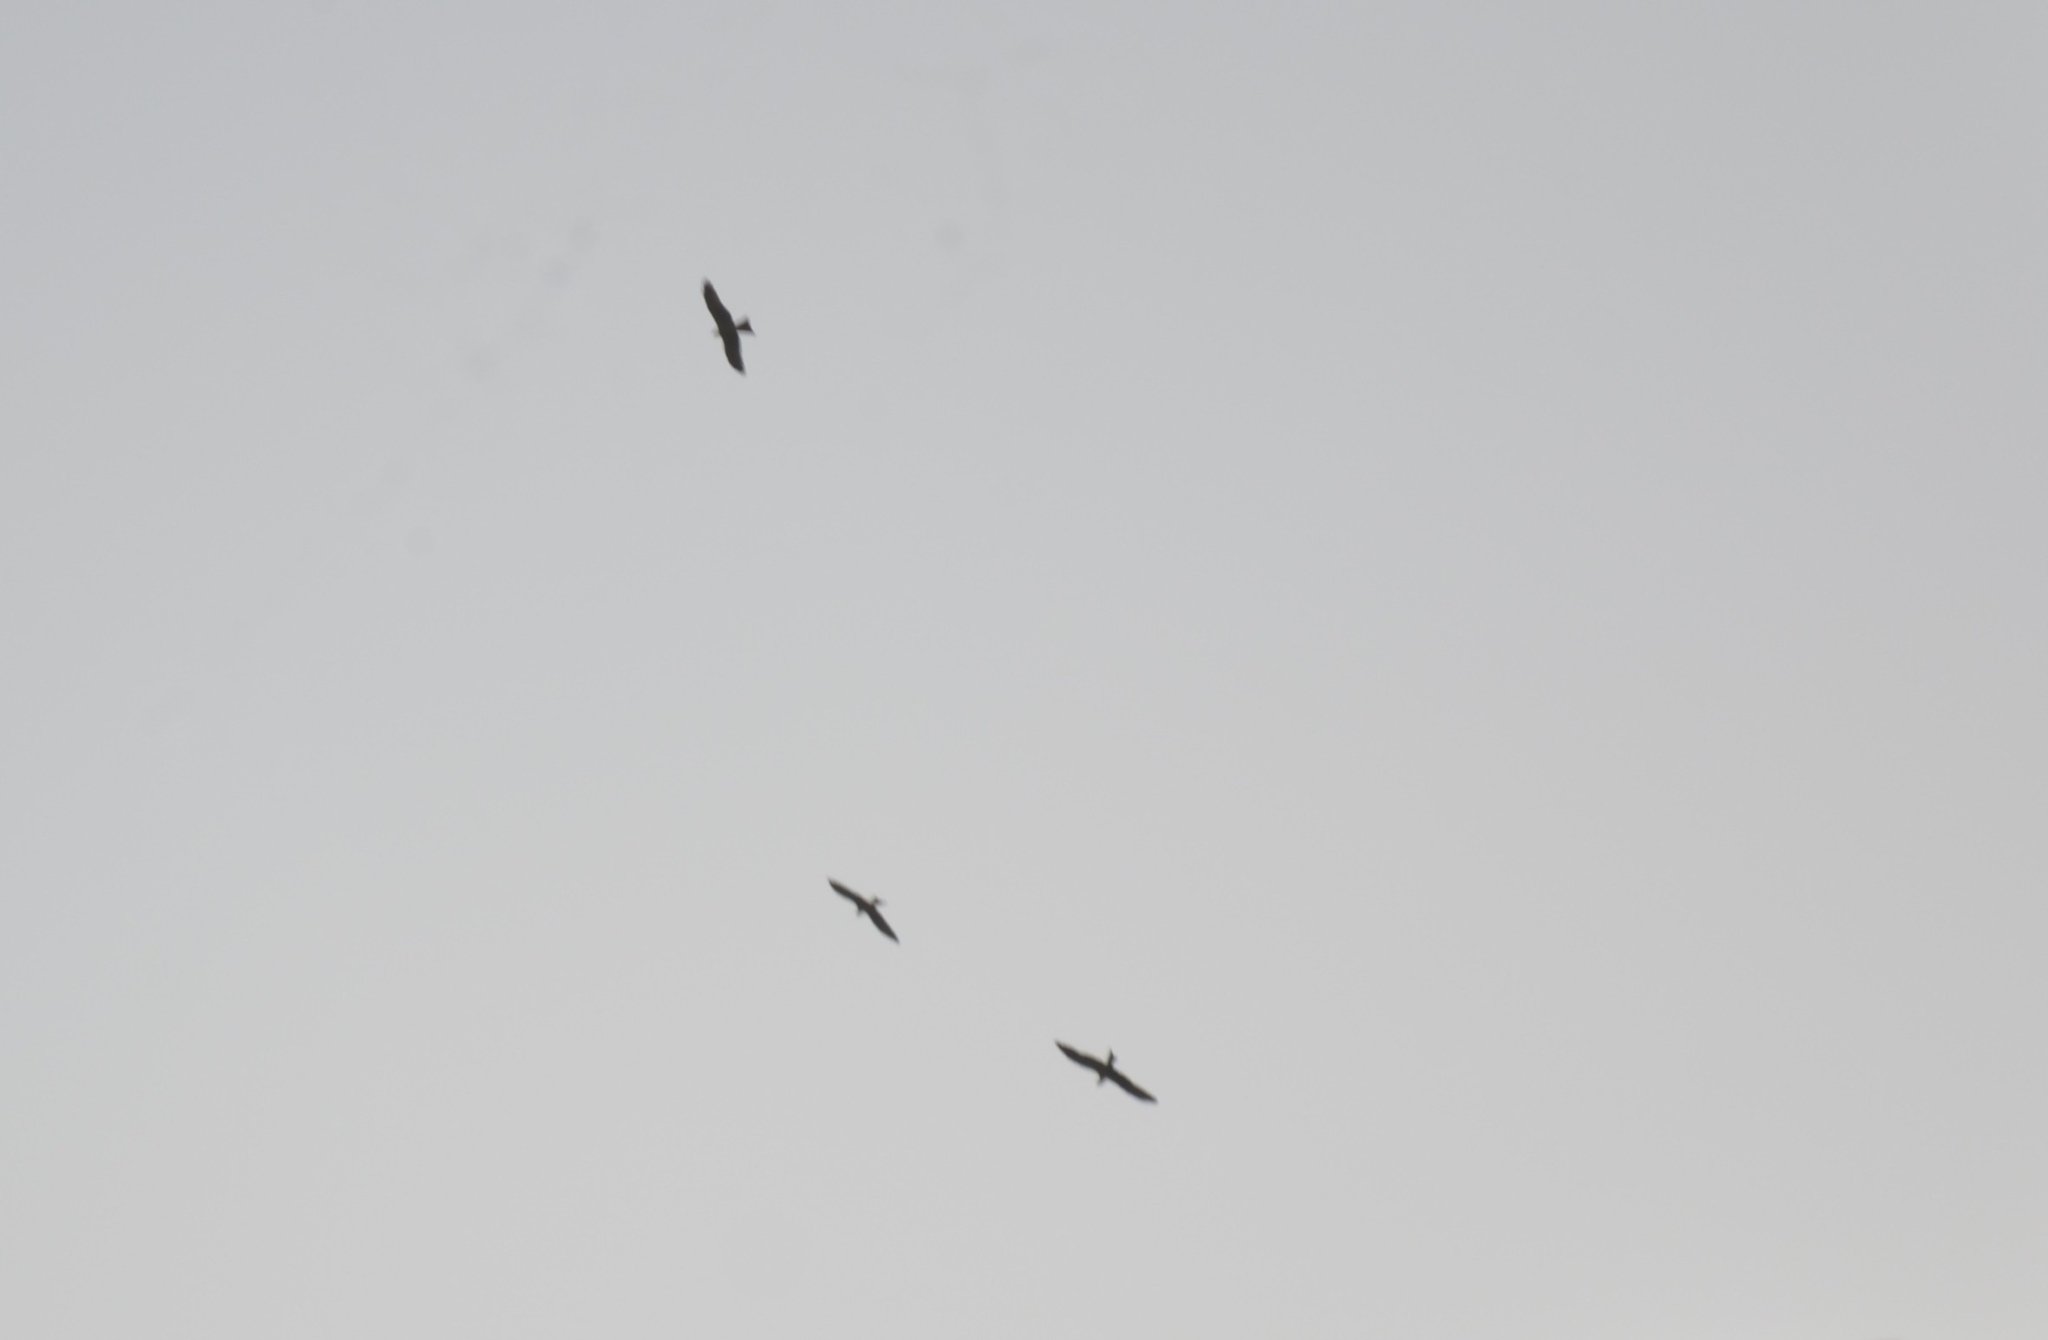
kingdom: Animalia
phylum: Chordata
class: Aves
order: Accipitriformes
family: Accipitridae
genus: Milvus
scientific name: Milvus migrans
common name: Black kite
